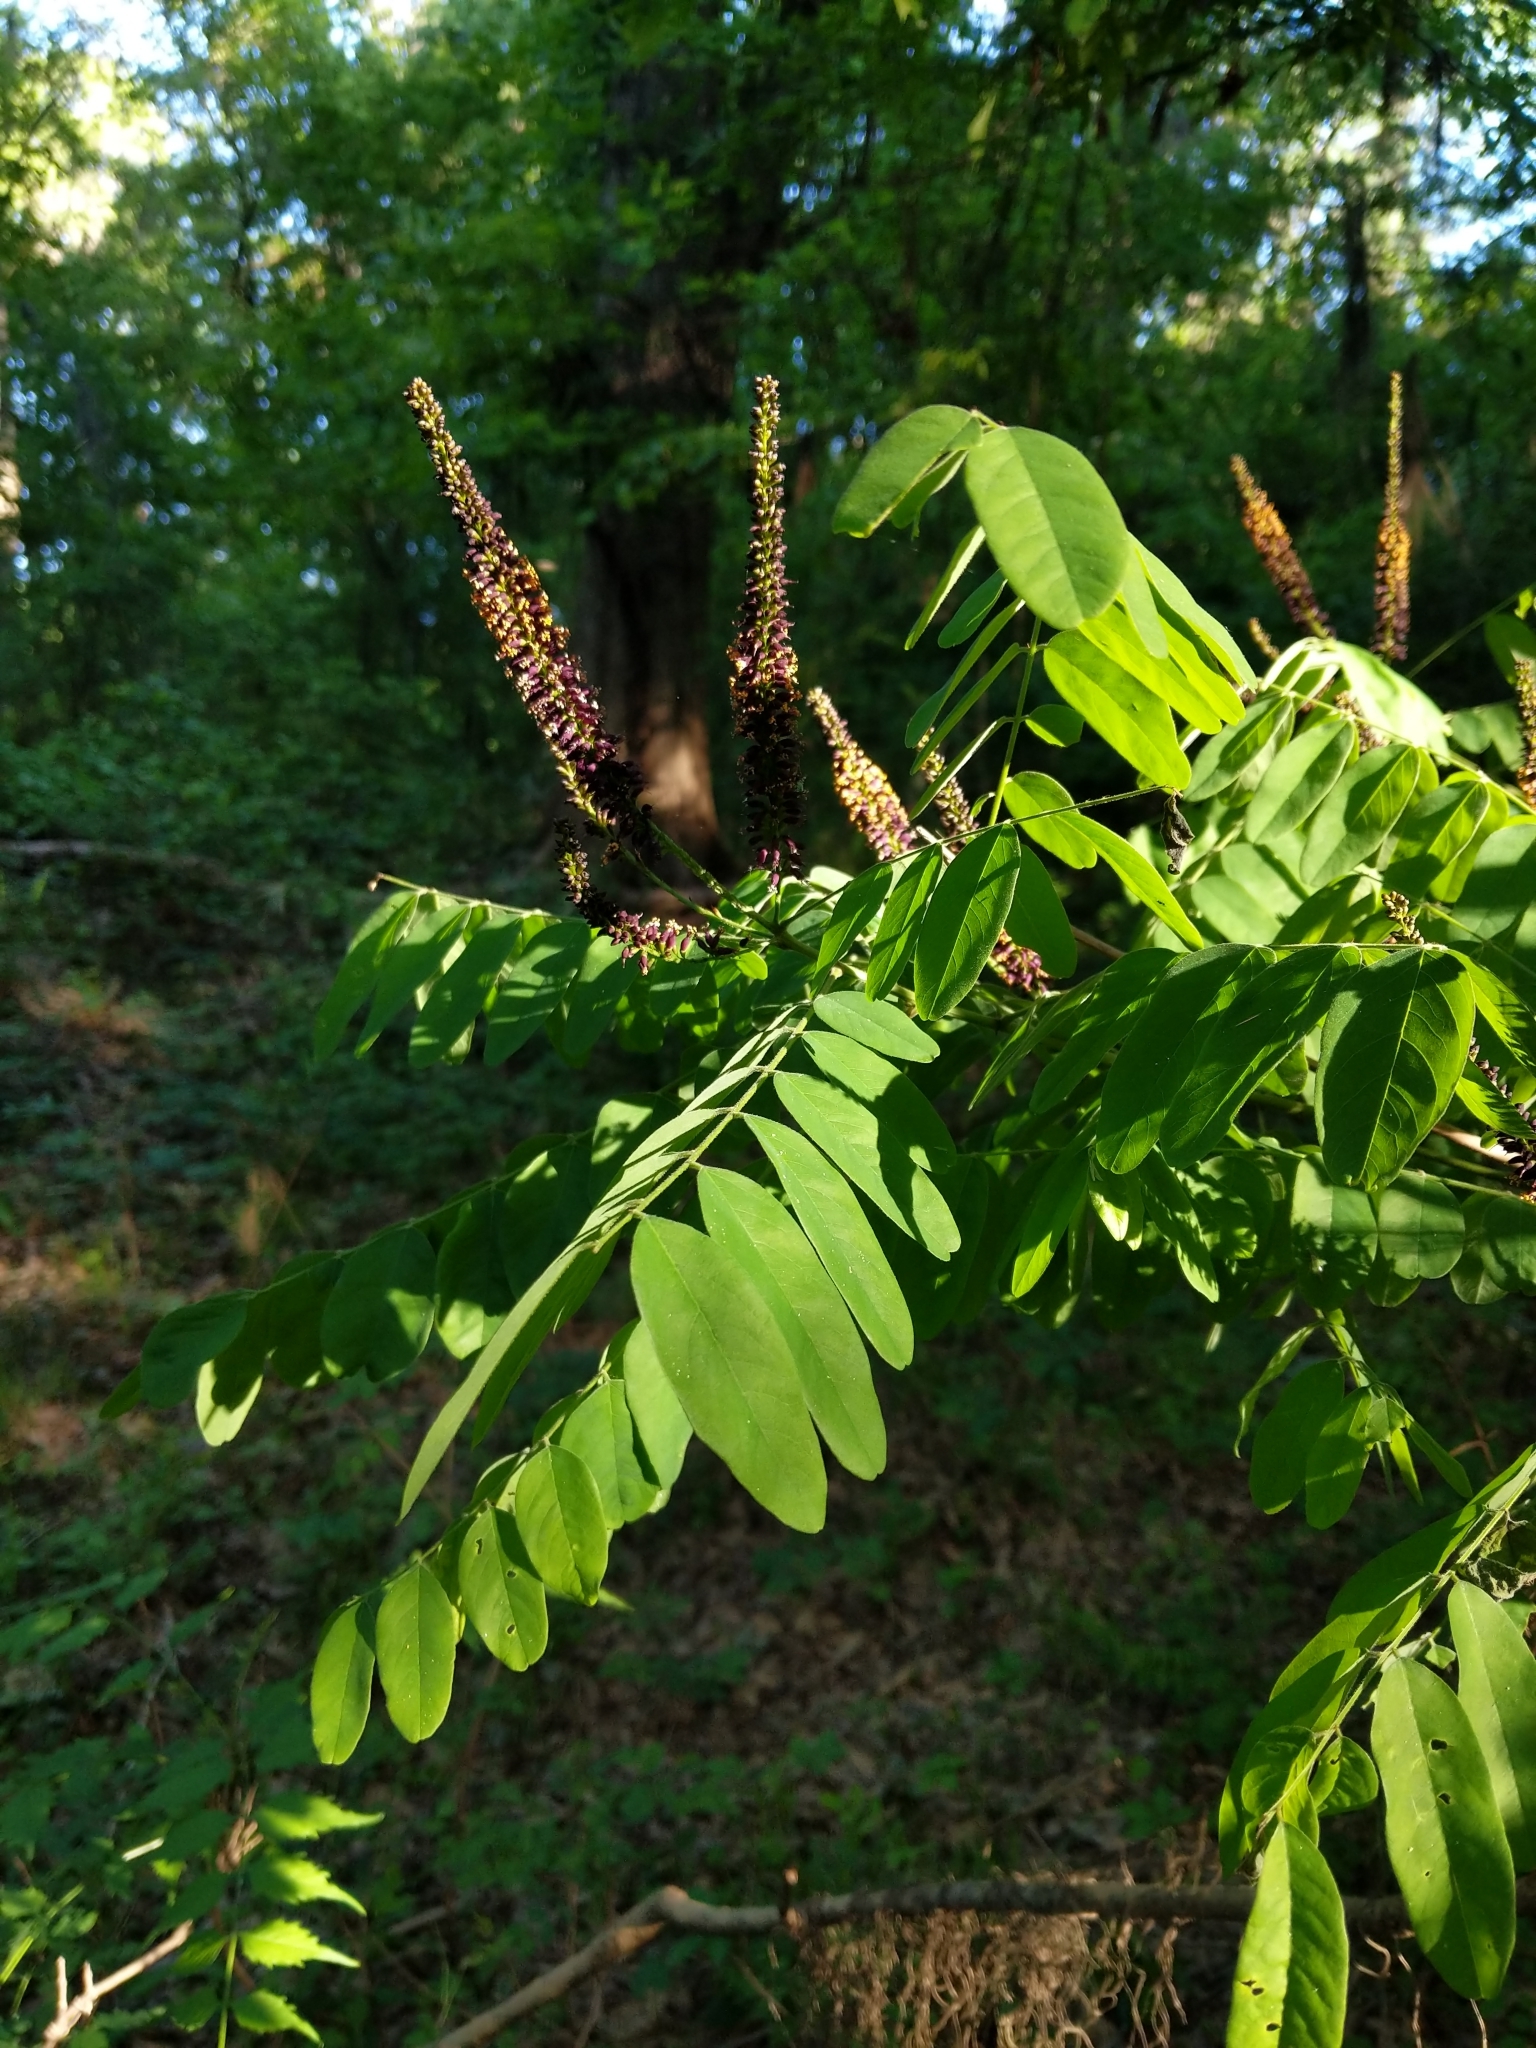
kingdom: Plantae
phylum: Tracheophyta
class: Magnoliopsida
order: Fabales
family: Fabaceae
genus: Amorpha
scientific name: Amorpha fruticosa
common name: False indigo
